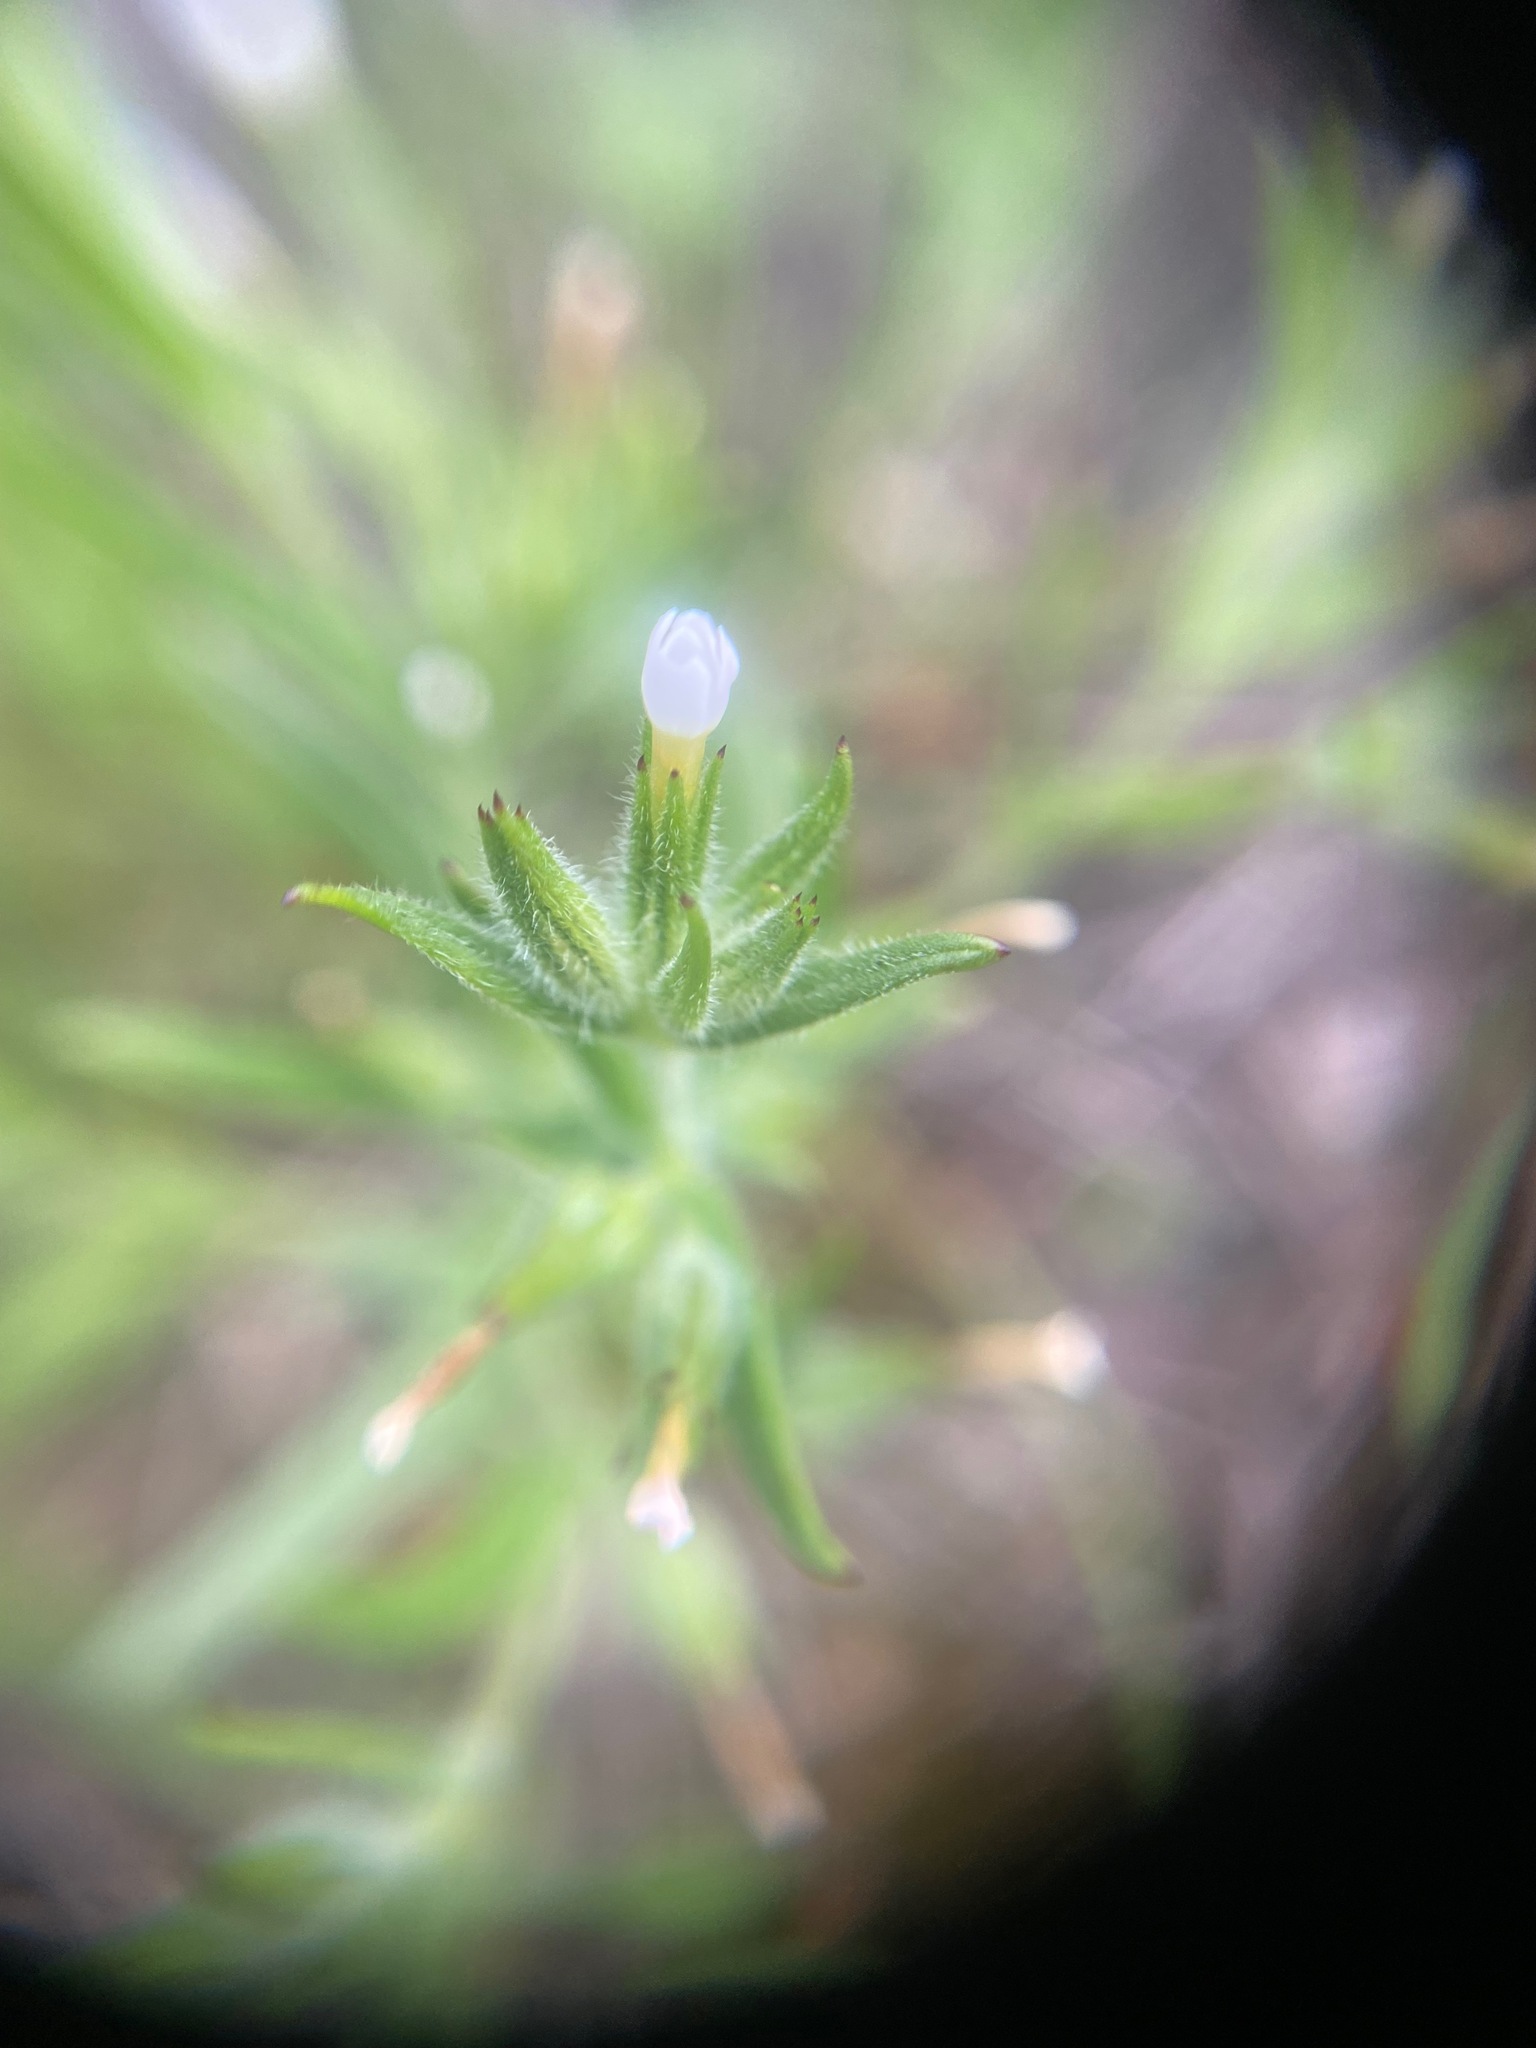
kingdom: Plantae
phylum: Tracheophyta
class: Magnoliopsida
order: Ericales
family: Polemoniaceae
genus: Phlox
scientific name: Phlox gracilis
